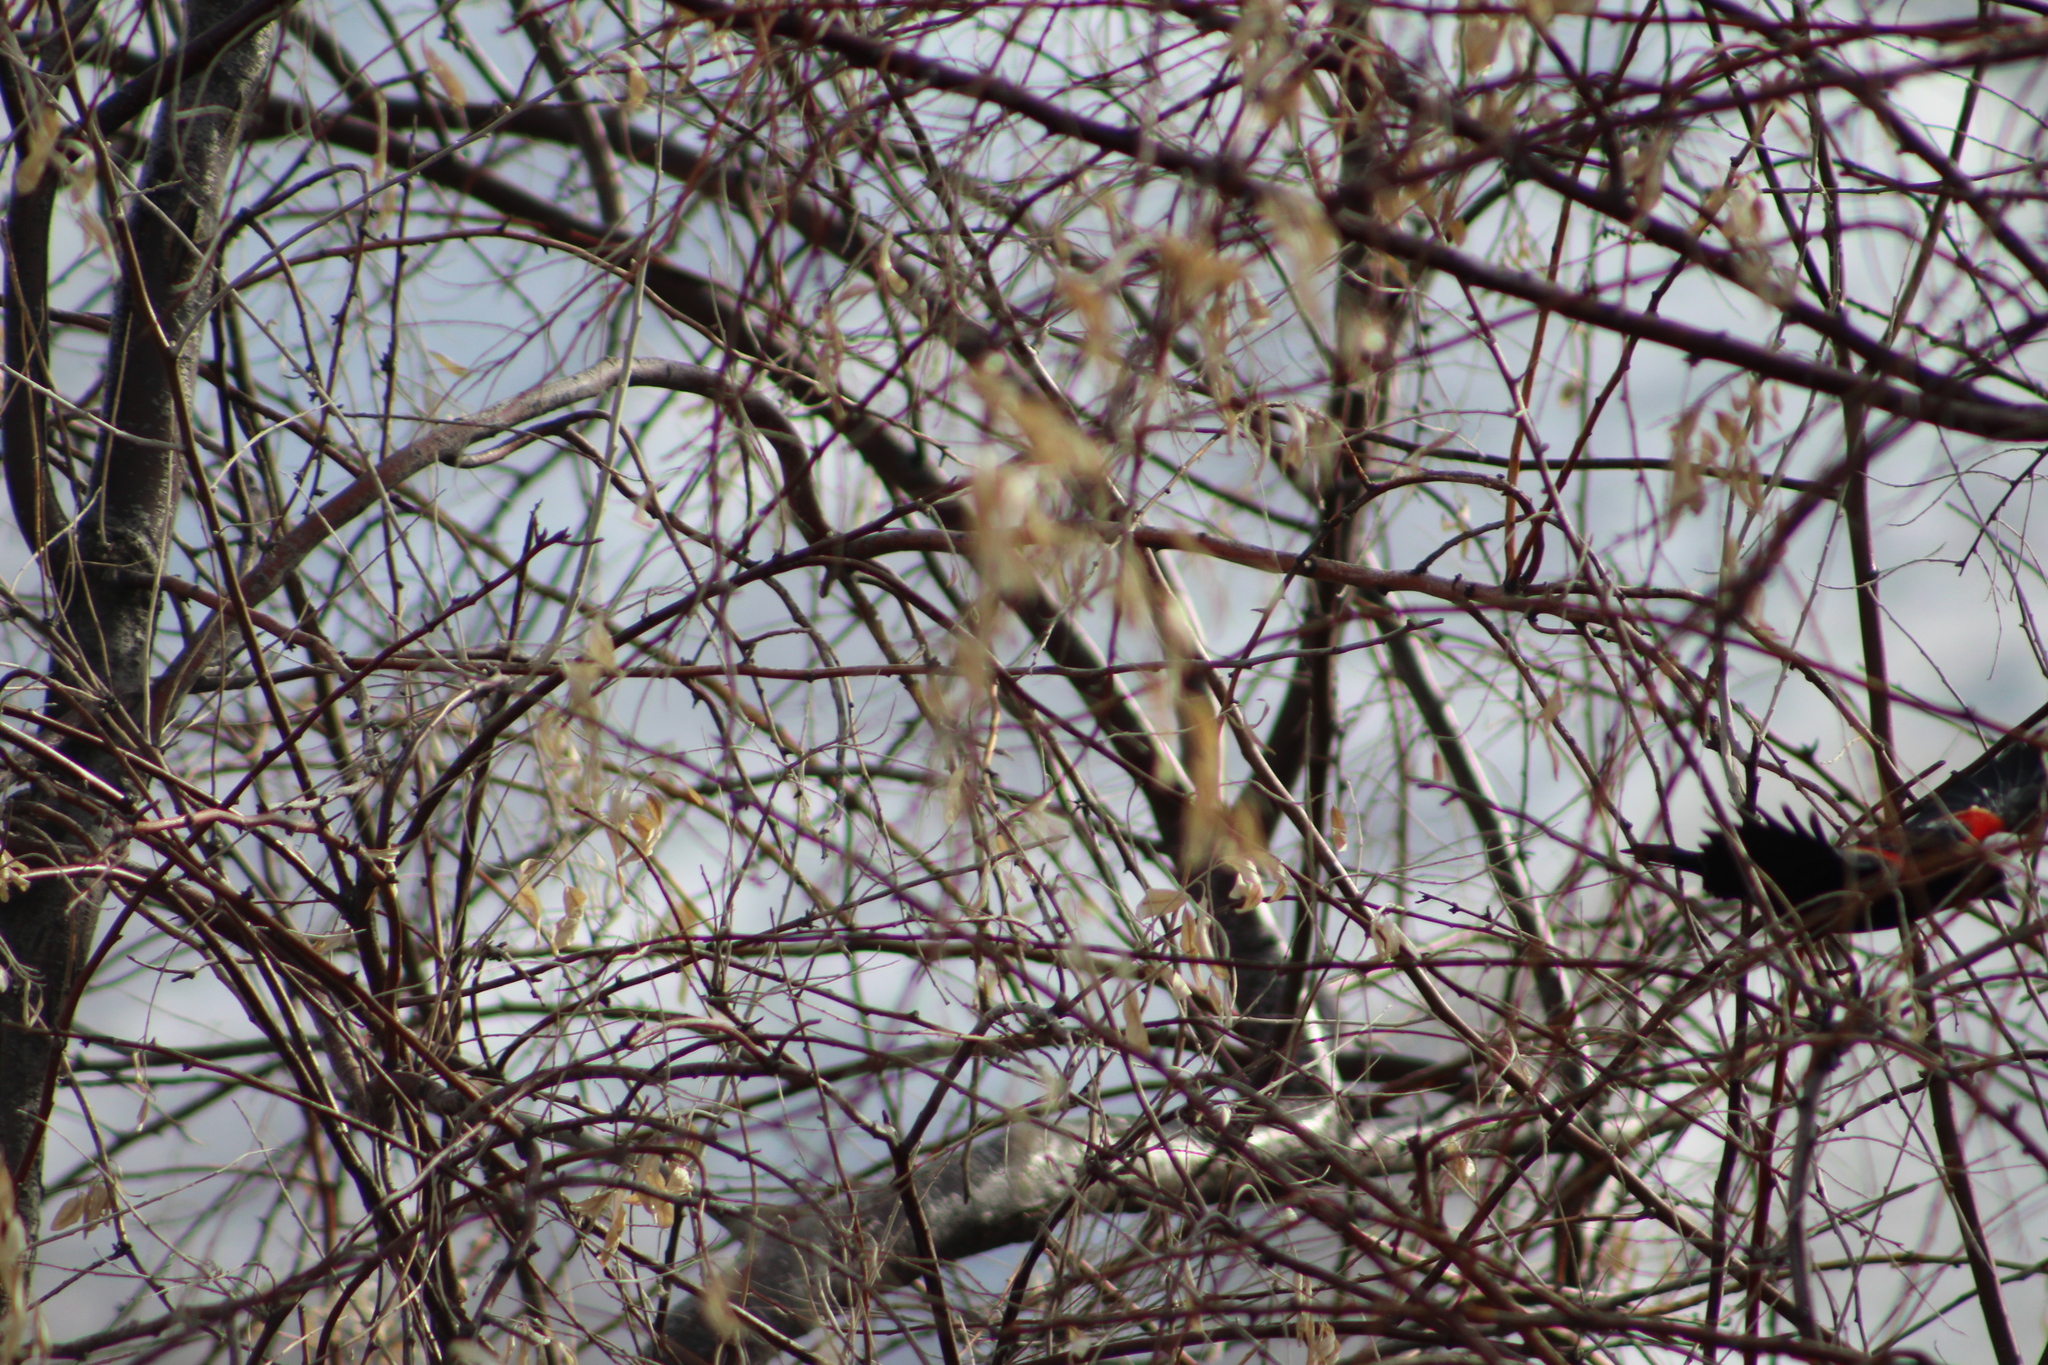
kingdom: Animalia
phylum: Chordata
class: Aves
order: Passeriformes
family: Icteridae
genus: Agelaius
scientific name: Agelaius phoeniceus
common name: Red-winged blackbird
